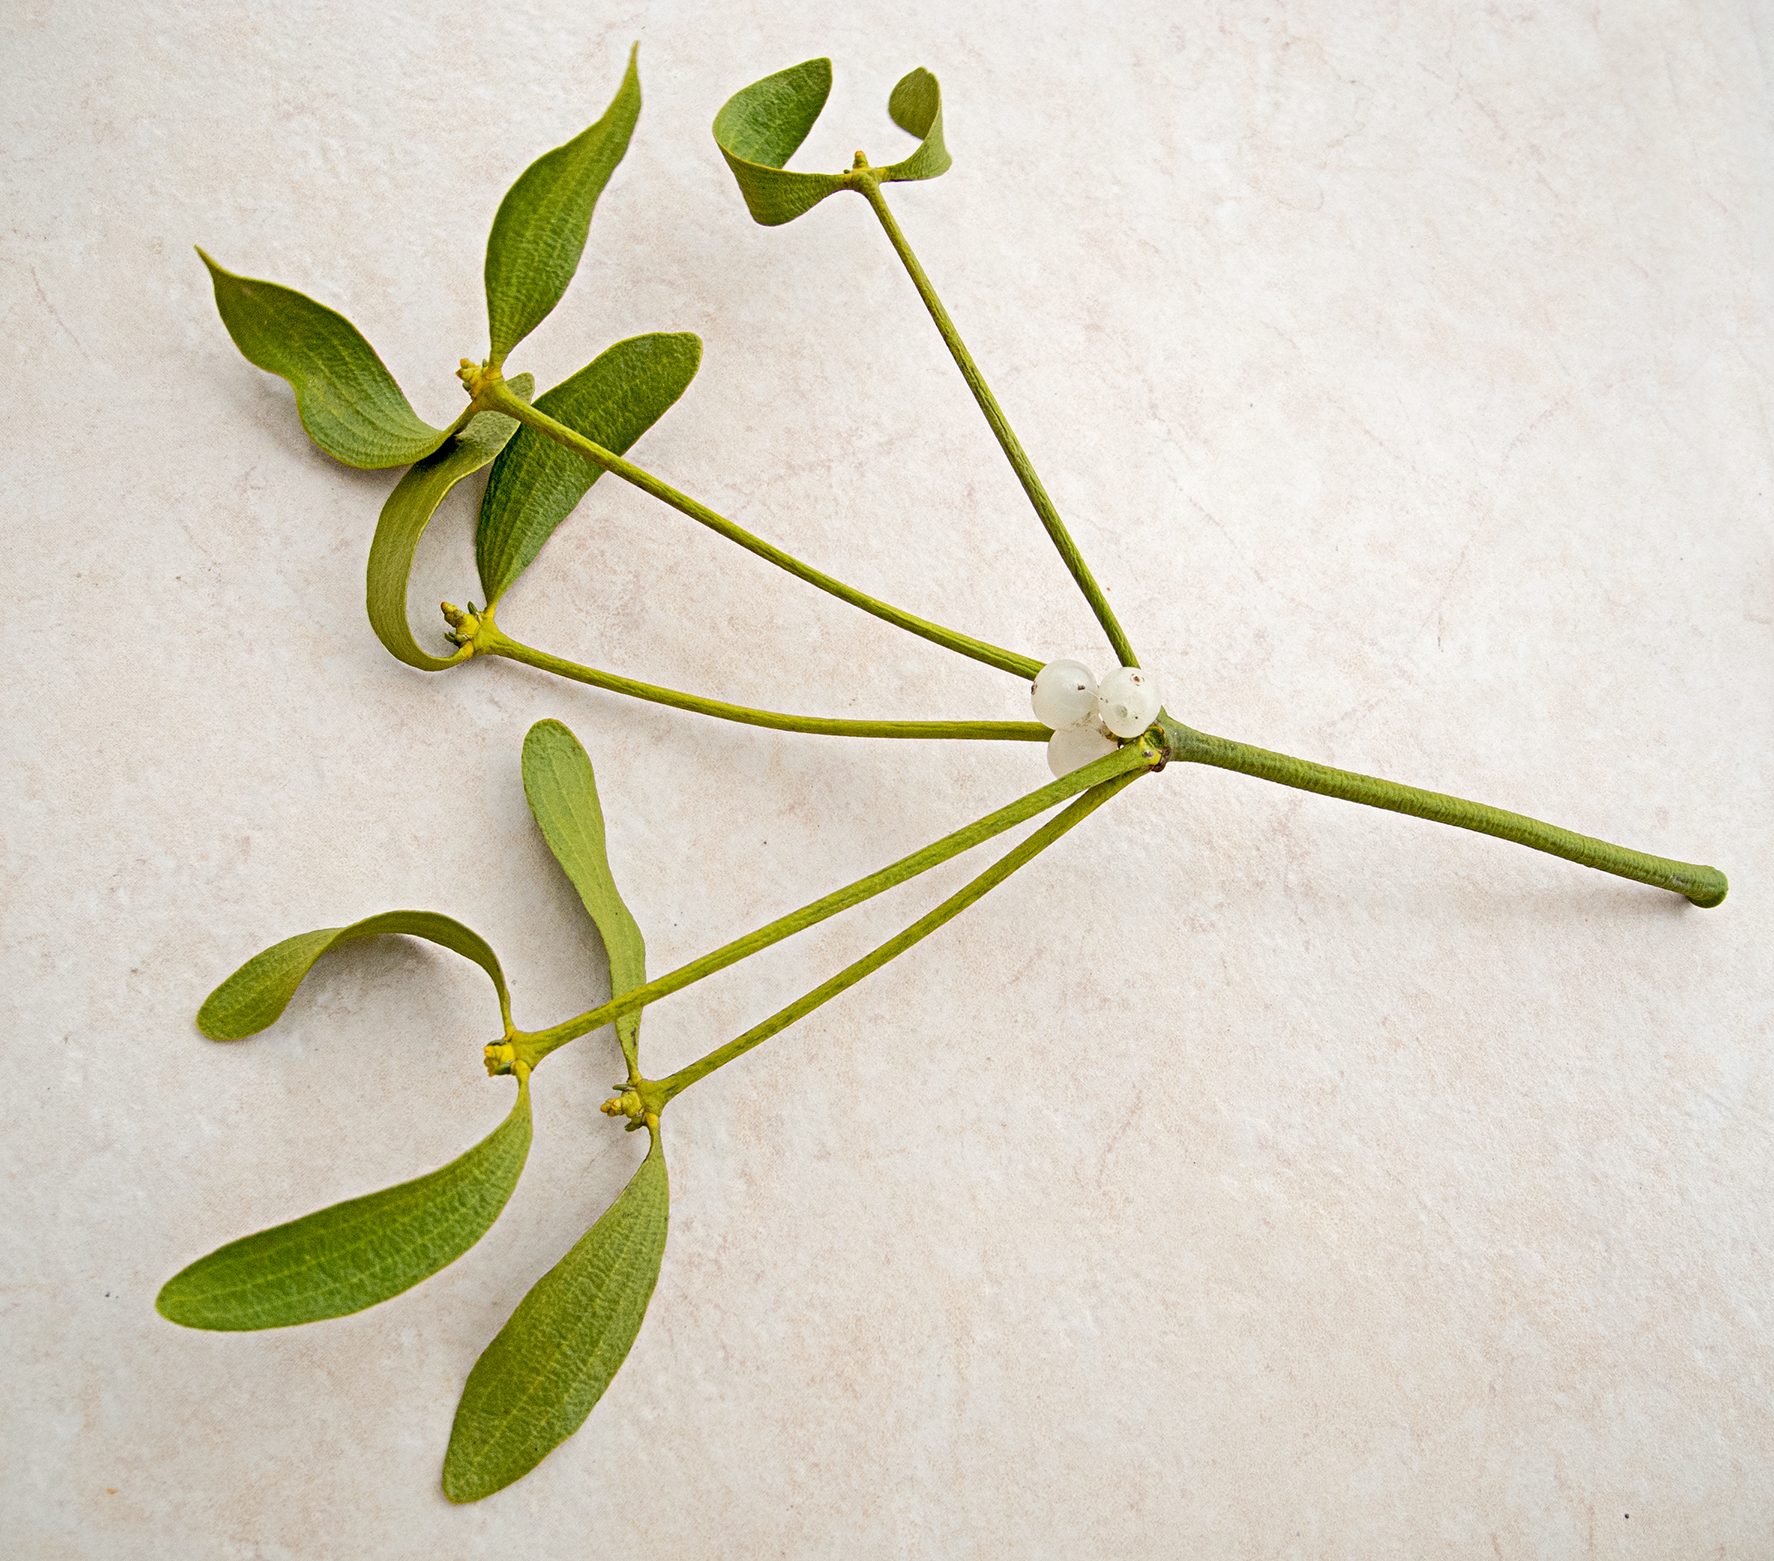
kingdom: Plantae
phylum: Tracheophyta
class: Magnoliopsida
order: Santalales
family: Viscaceae
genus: Viscum
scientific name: Viscum album
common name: Mistletoe
